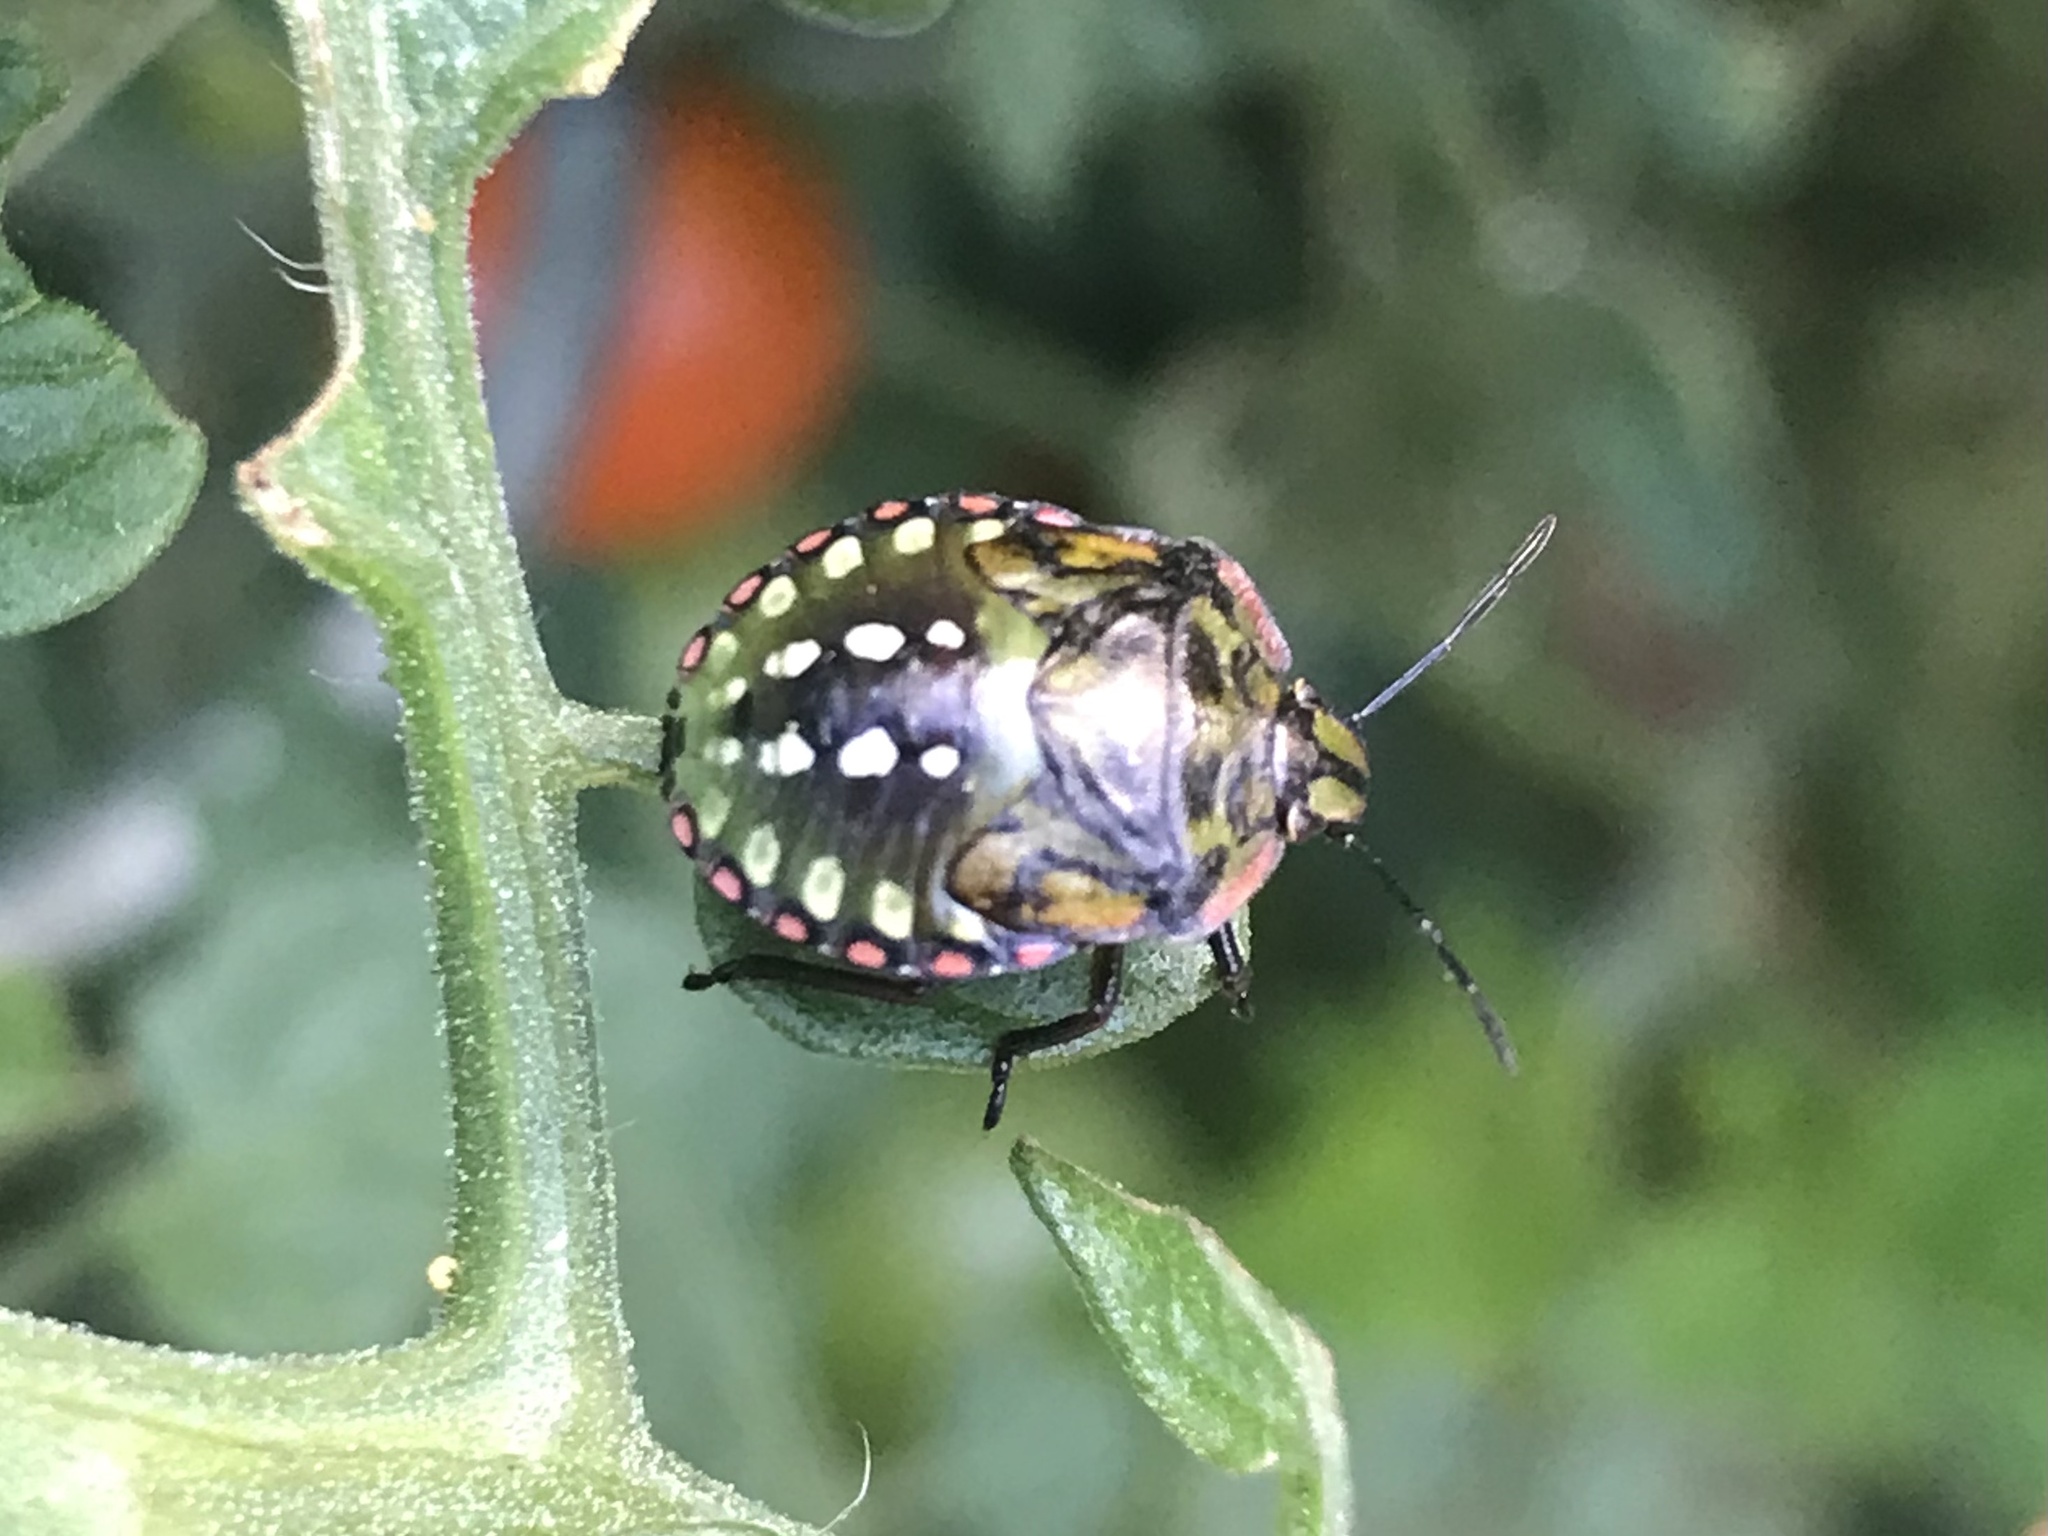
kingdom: Animalia
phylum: Arthropoda
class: Insecta
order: Hemiptera
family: Pentatomidae
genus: Nezara
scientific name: Nezara viridula
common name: Southern green stink bug
